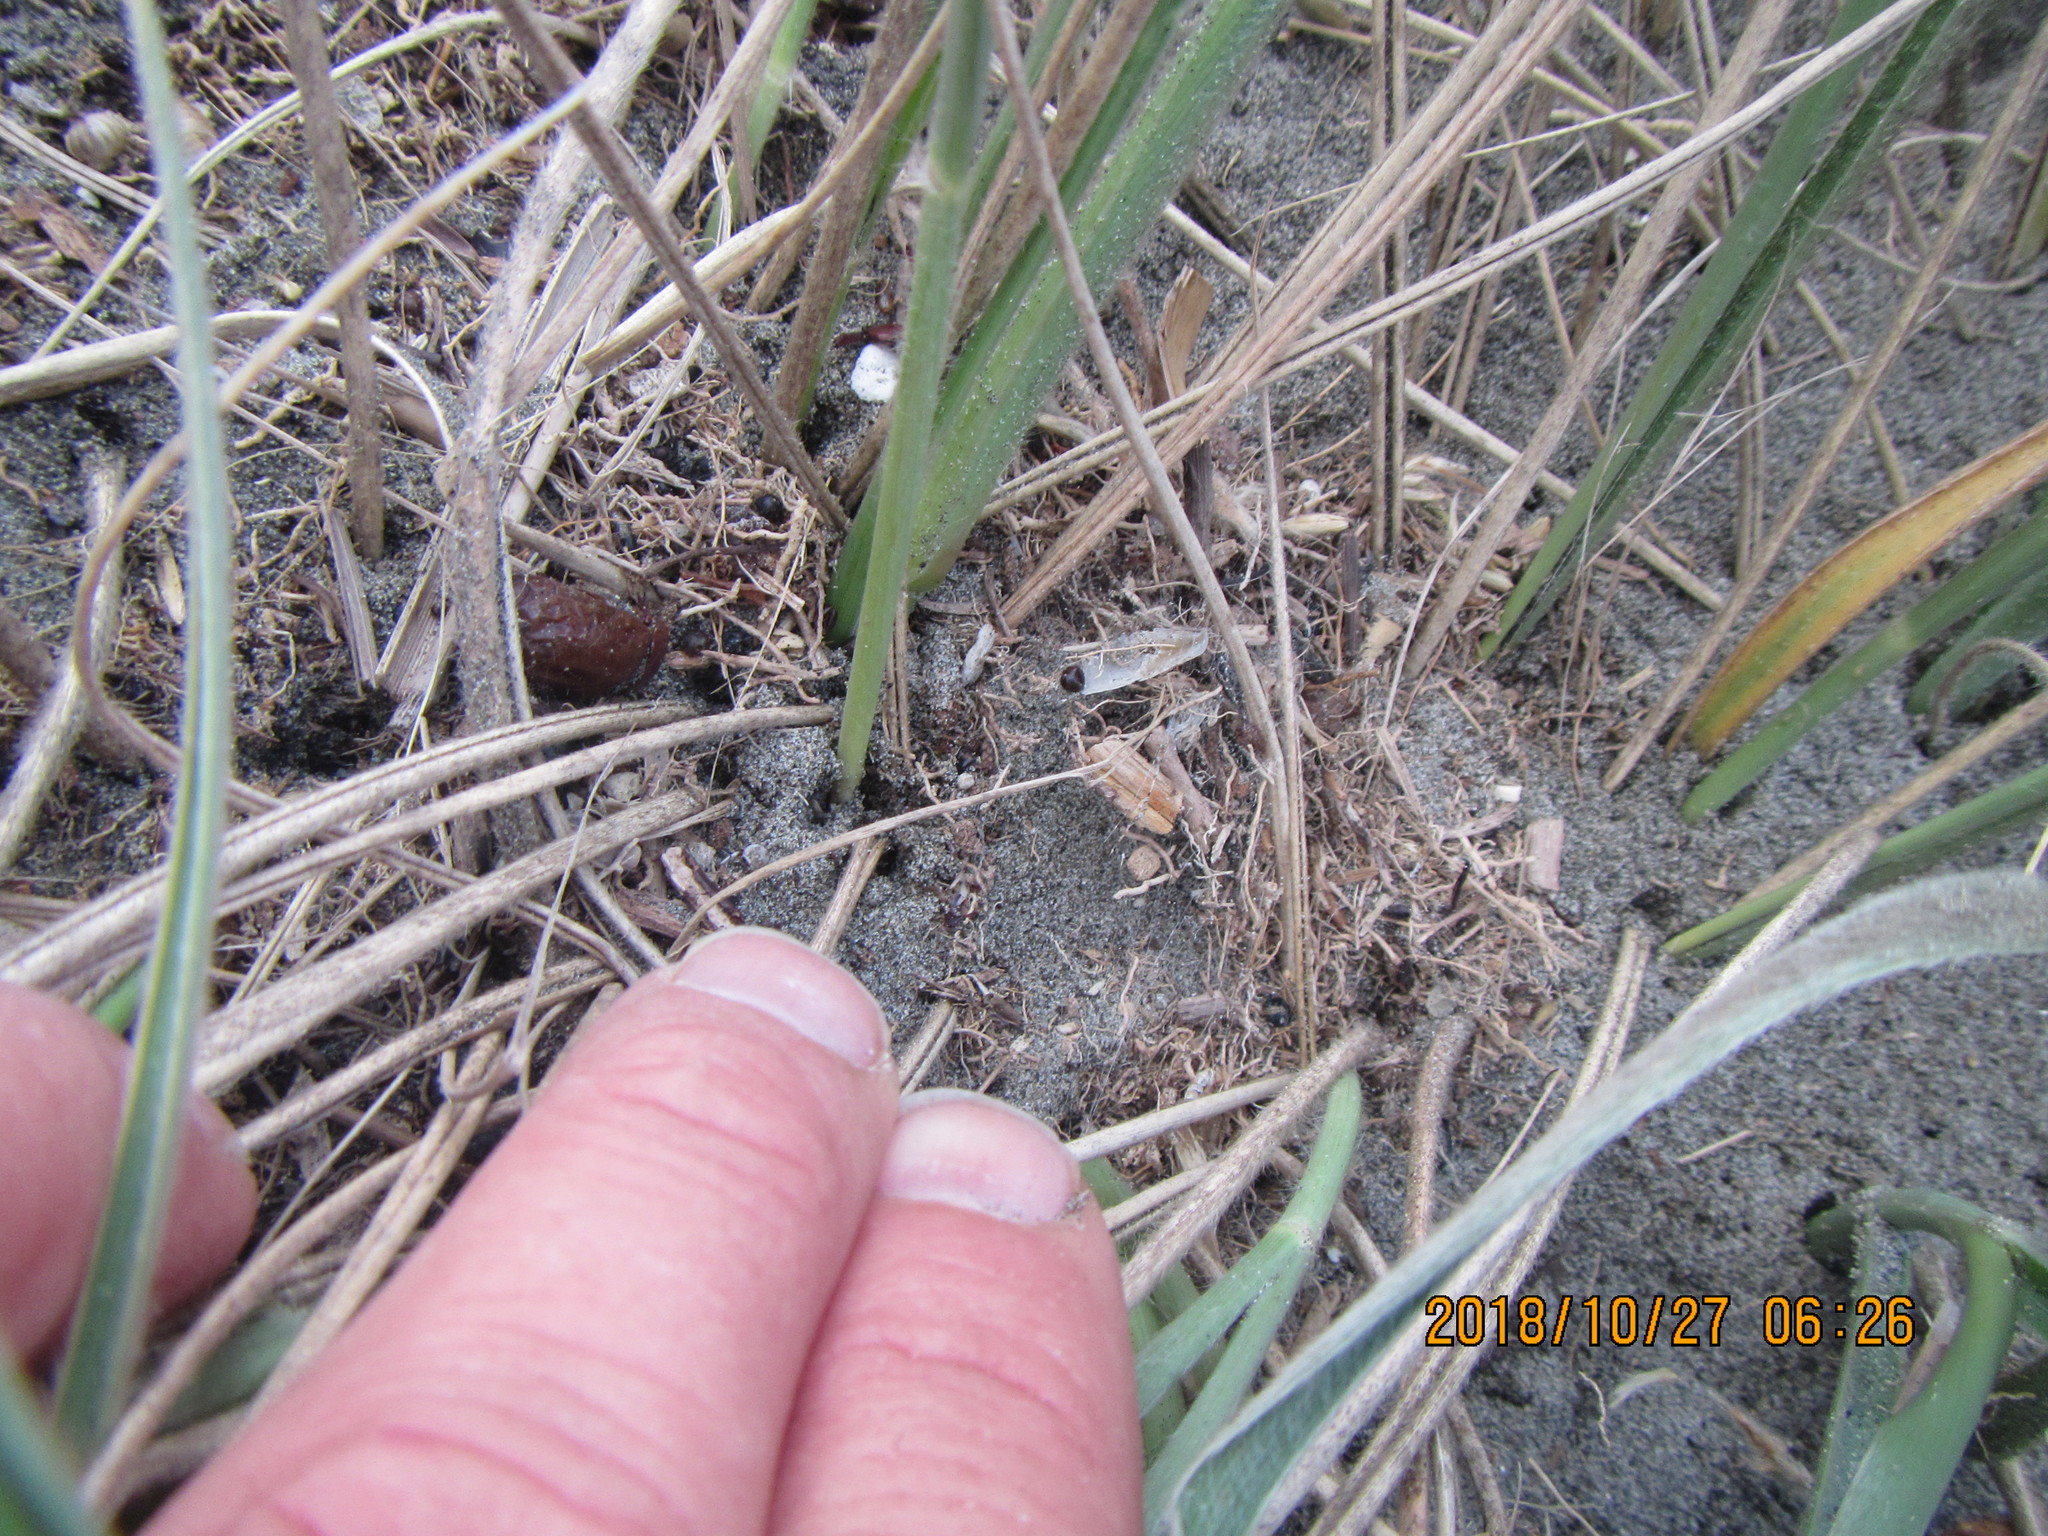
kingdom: Animalia
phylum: Arthropoda
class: Arachnida
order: Araneae
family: Theridiidae
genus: Latrodectus
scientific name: Latrodectus katipo
